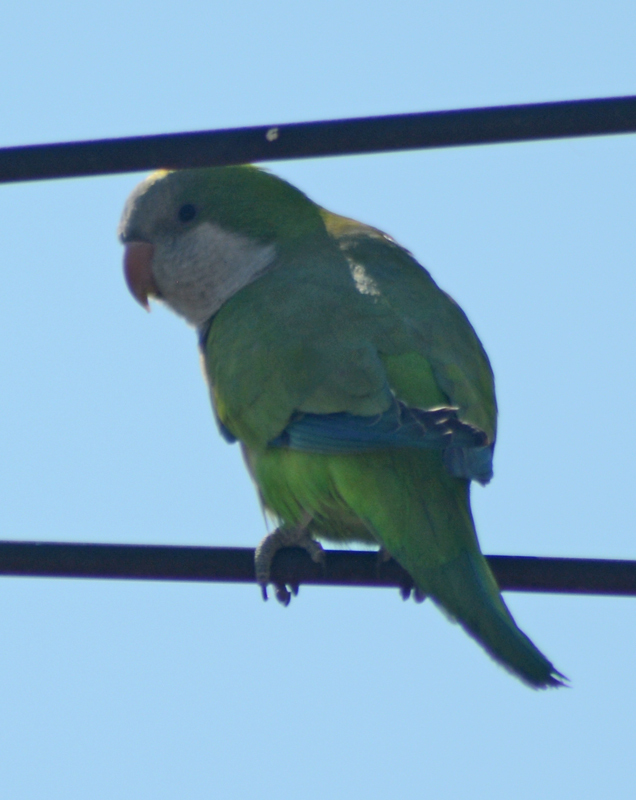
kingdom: Animalia
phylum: Chordata
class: Aves
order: Psittaciformes
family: Psittacidae
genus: Myiopsitta
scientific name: Myiopsitta monachus
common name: Monk parakeet
